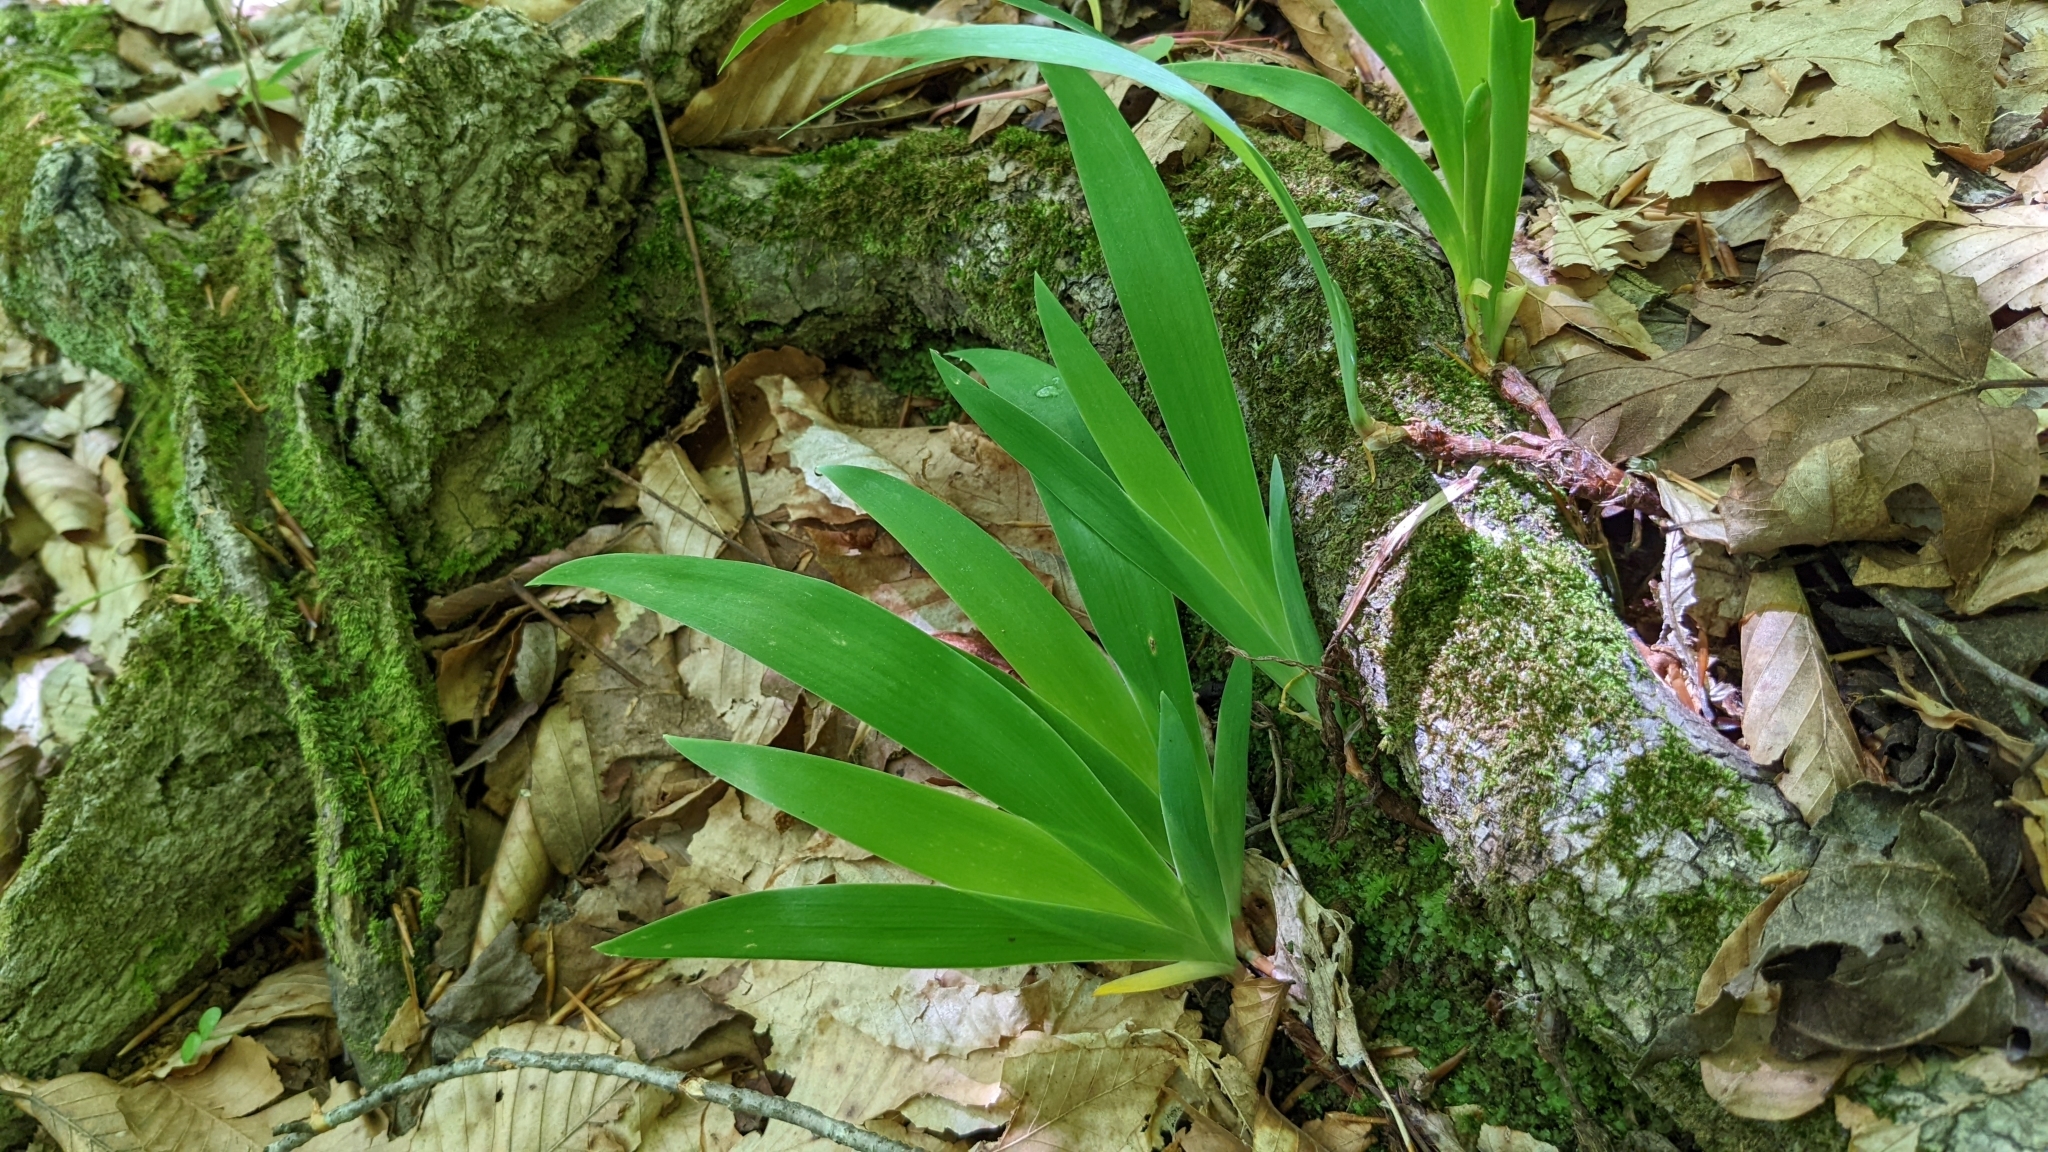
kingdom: Plantae
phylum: Tracheophyta
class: Liliopsida
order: Asparagales
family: Iridaceae
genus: Iris
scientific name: Iris cristata
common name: Crested iris
